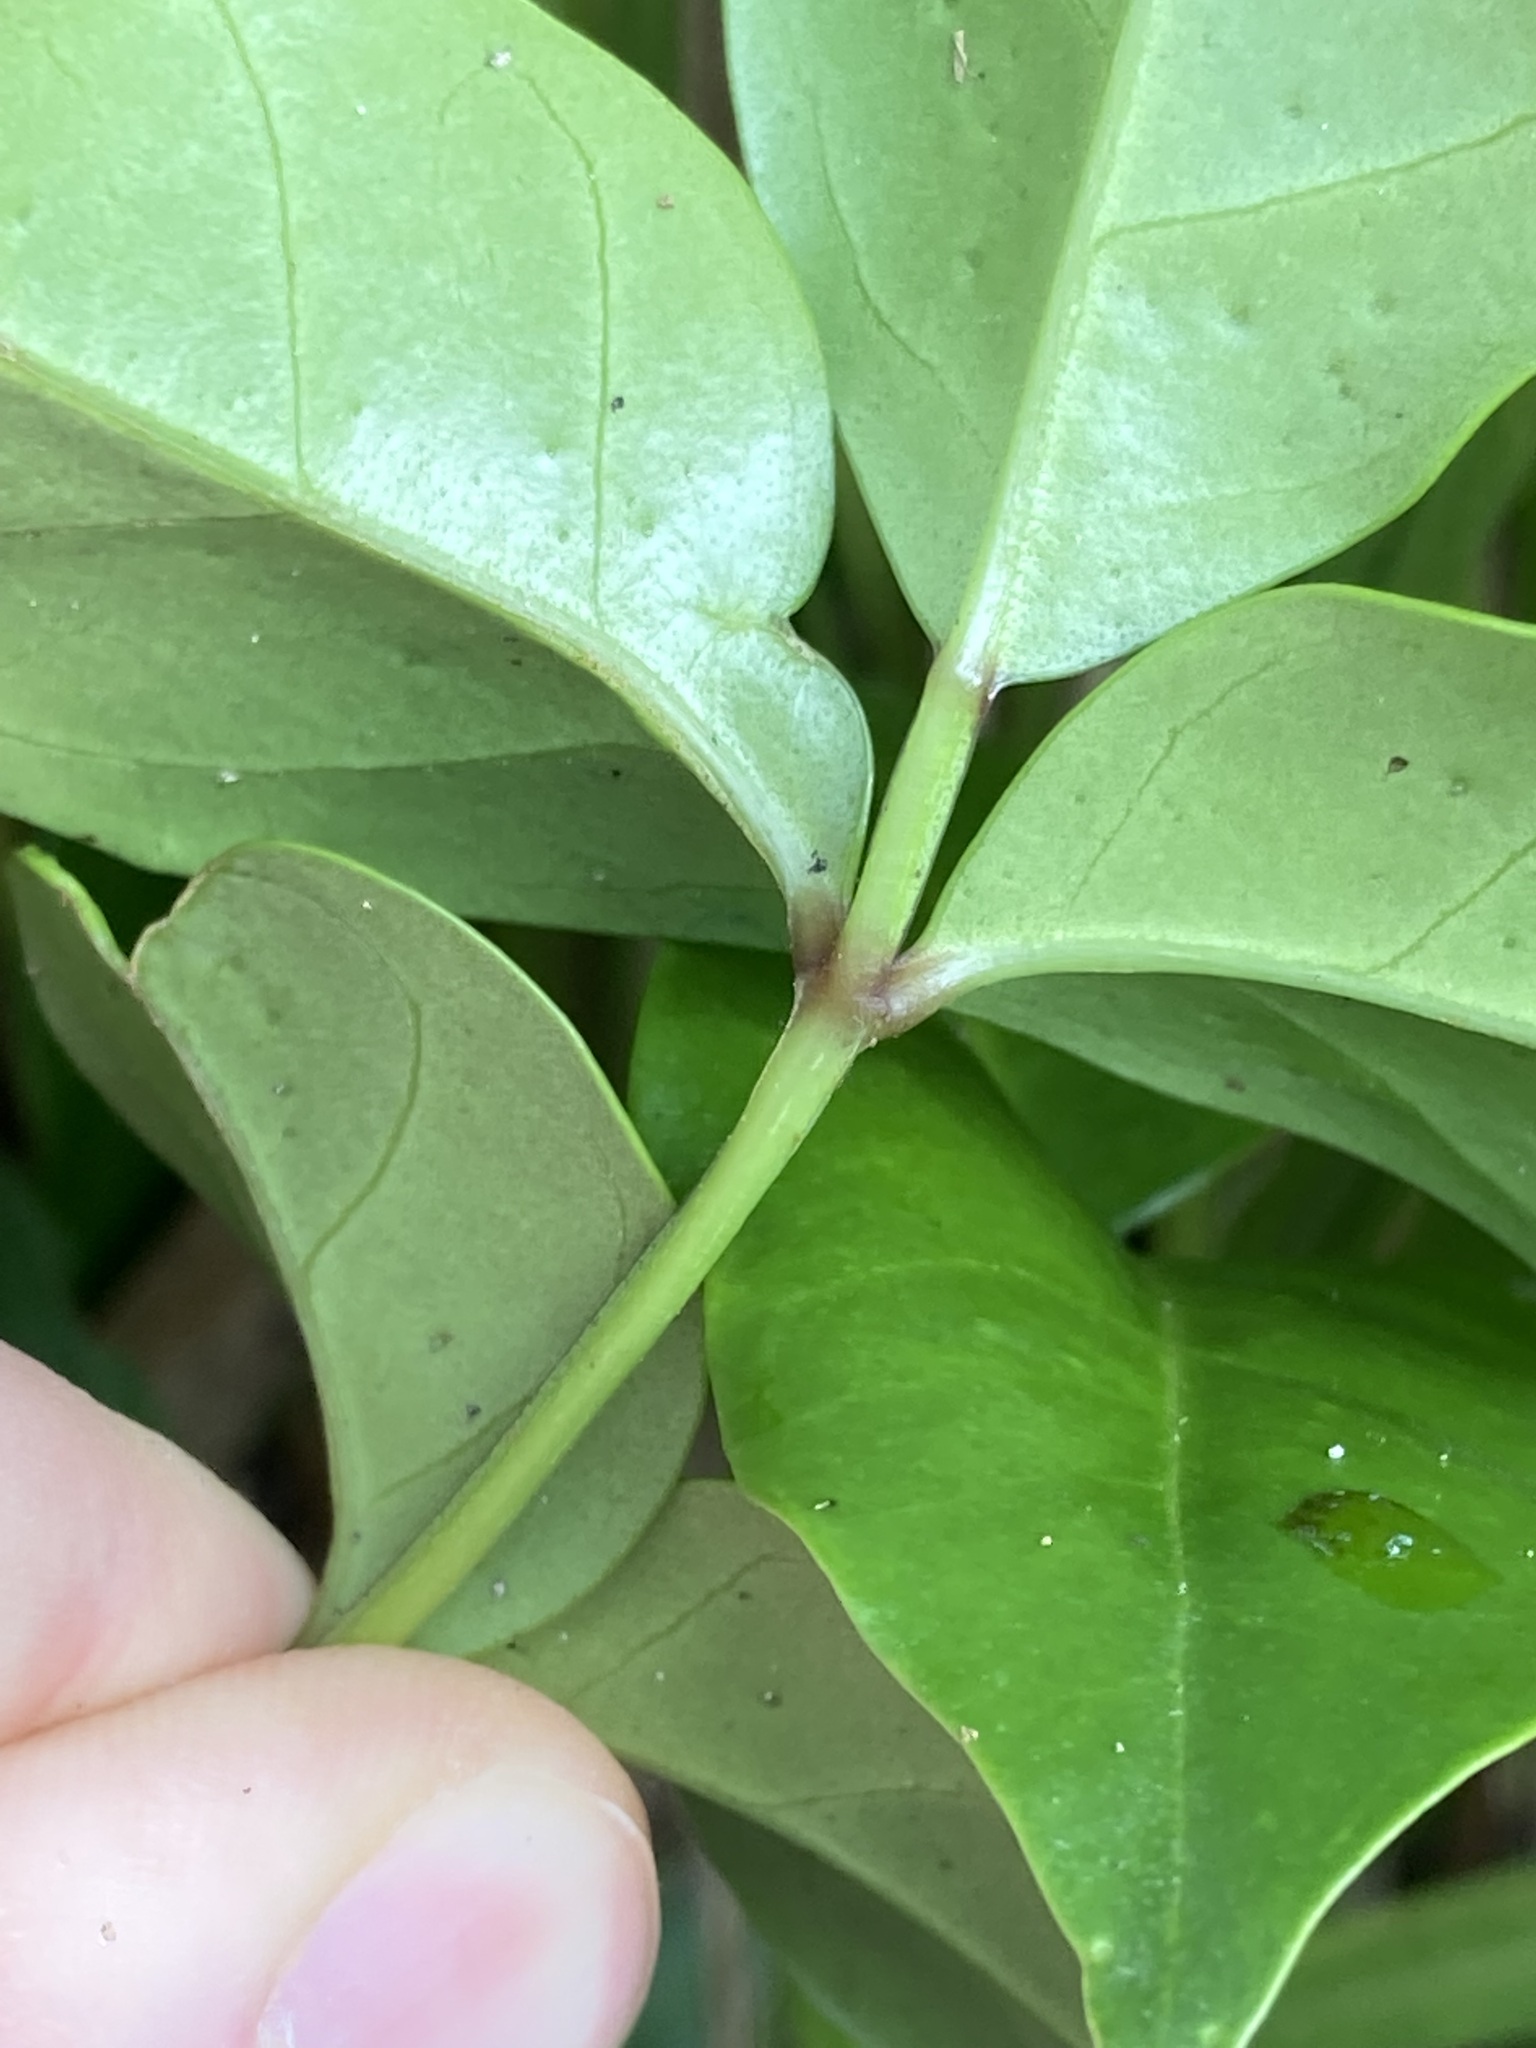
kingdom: Plantae
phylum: Tracheophyta
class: Magnoliopsida
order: Lamiales
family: Bignoniaceae
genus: Pandorea
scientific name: Pandorea jasminoides
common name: Bowerplant
